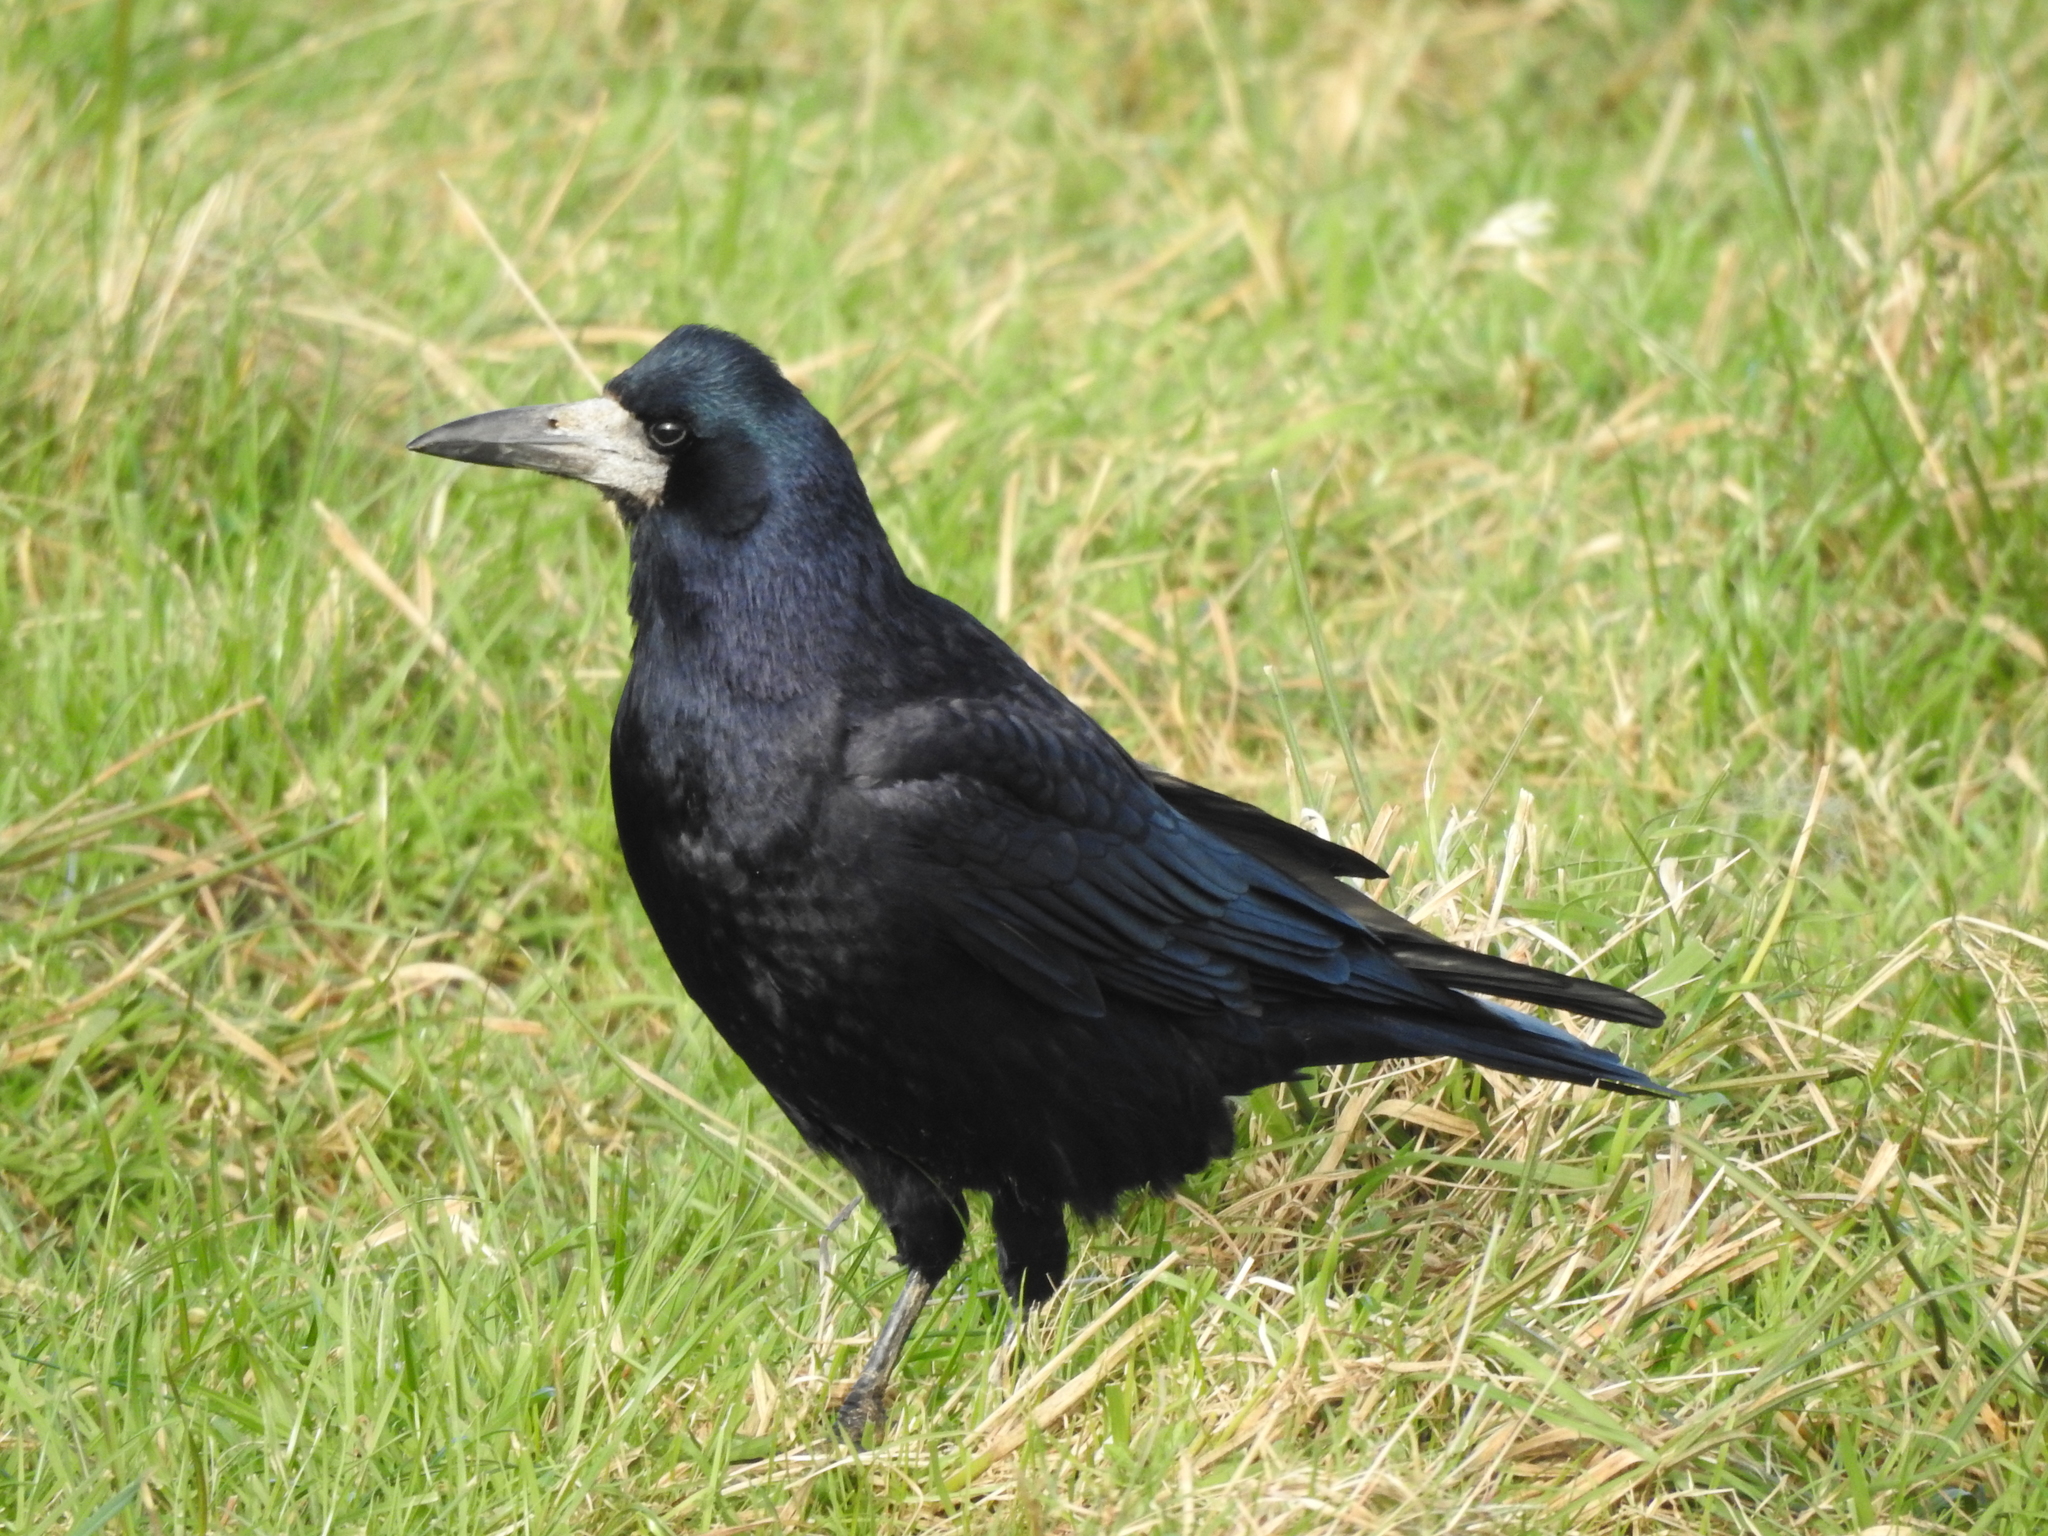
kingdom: Animalia
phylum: Chordata
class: Aves
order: Passeriformes
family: Corvidae
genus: Corvus
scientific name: Corvus frugilegus
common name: Rook
